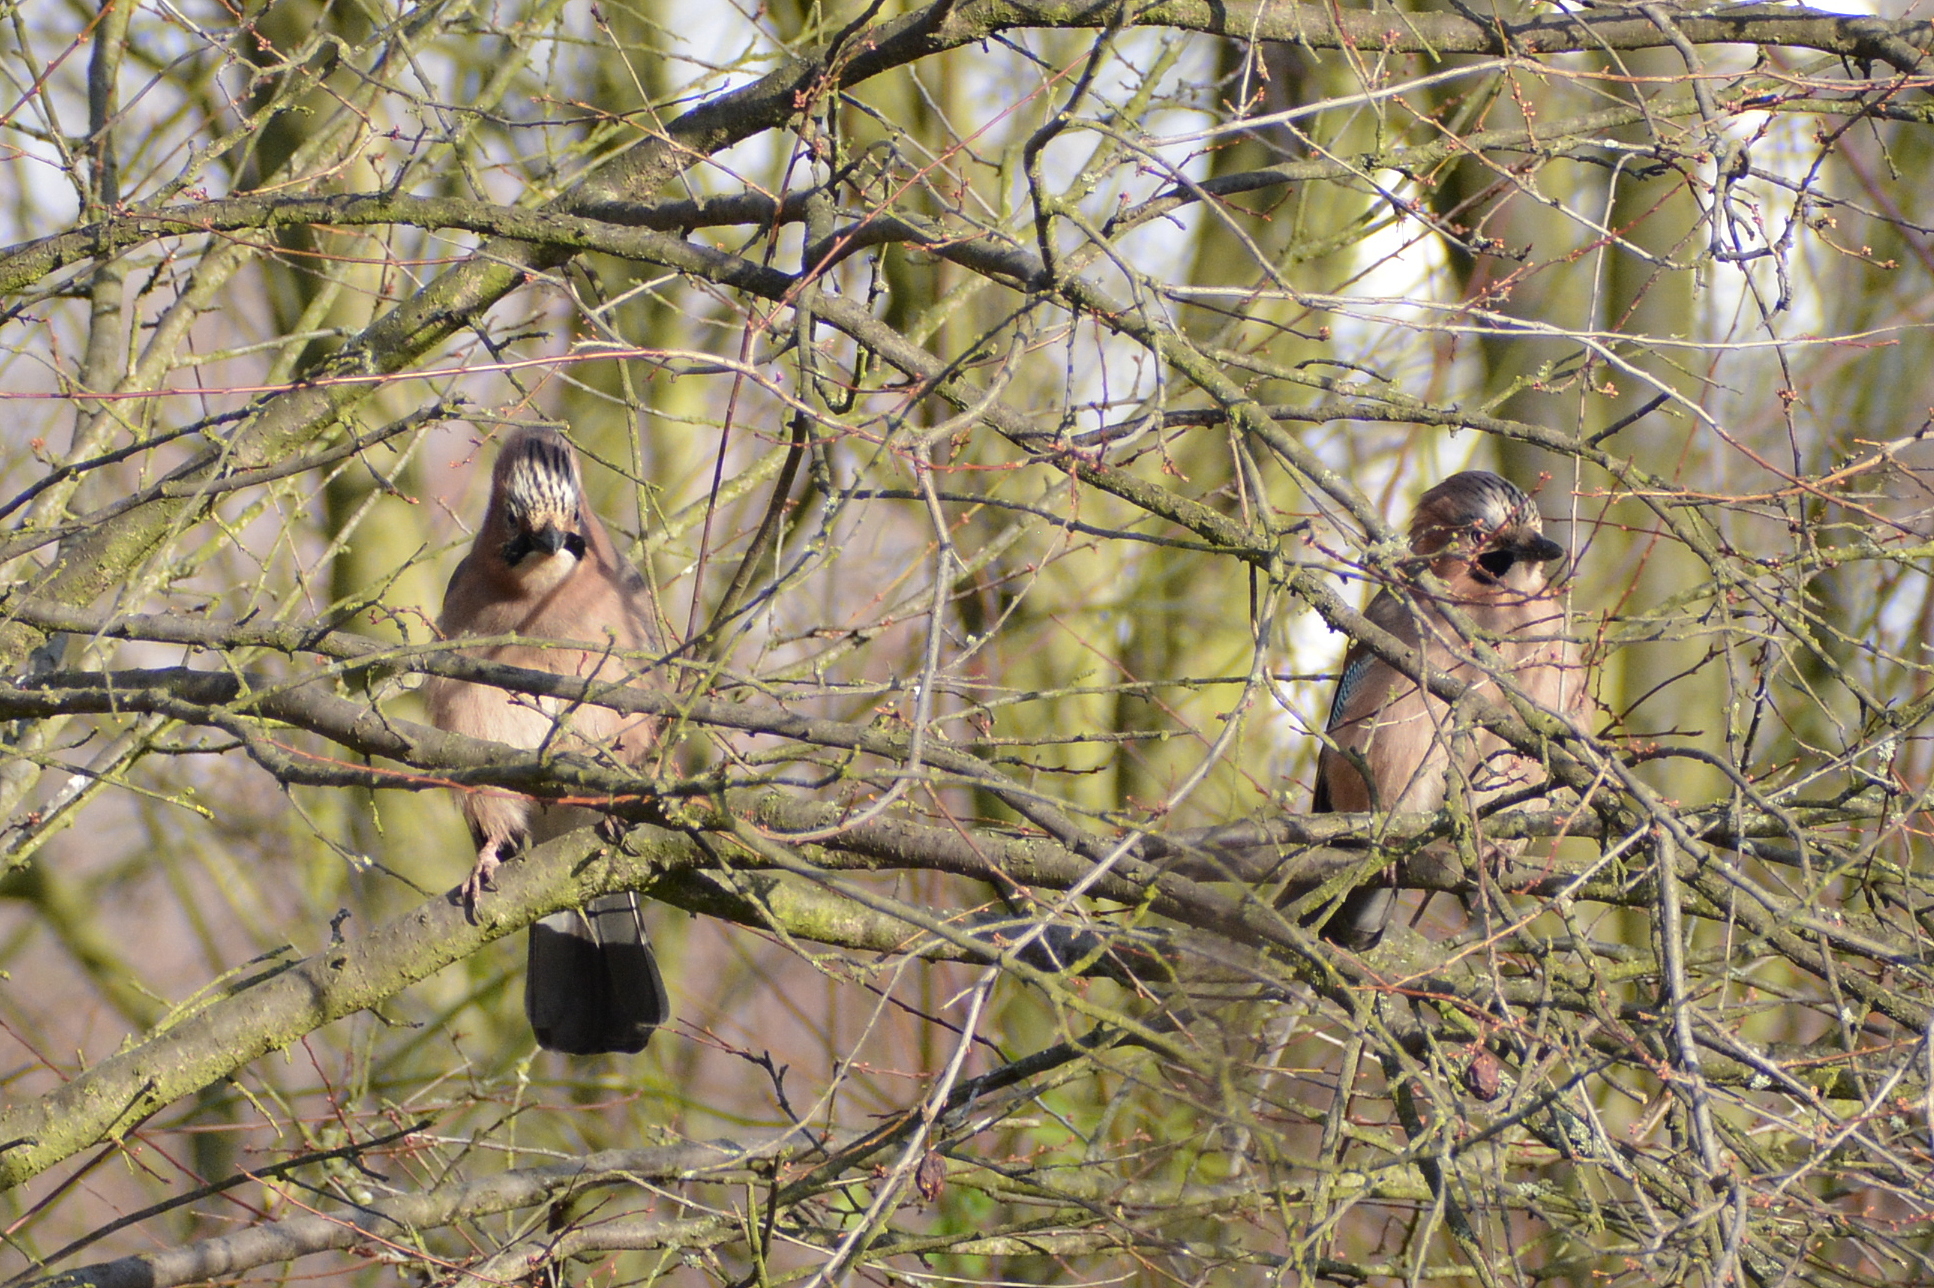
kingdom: Animalia
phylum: Chordata
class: Aves
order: Passeriformes
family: Corvidae
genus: Garrulus
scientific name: Garrulus glandarius
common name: Eurasian jay
